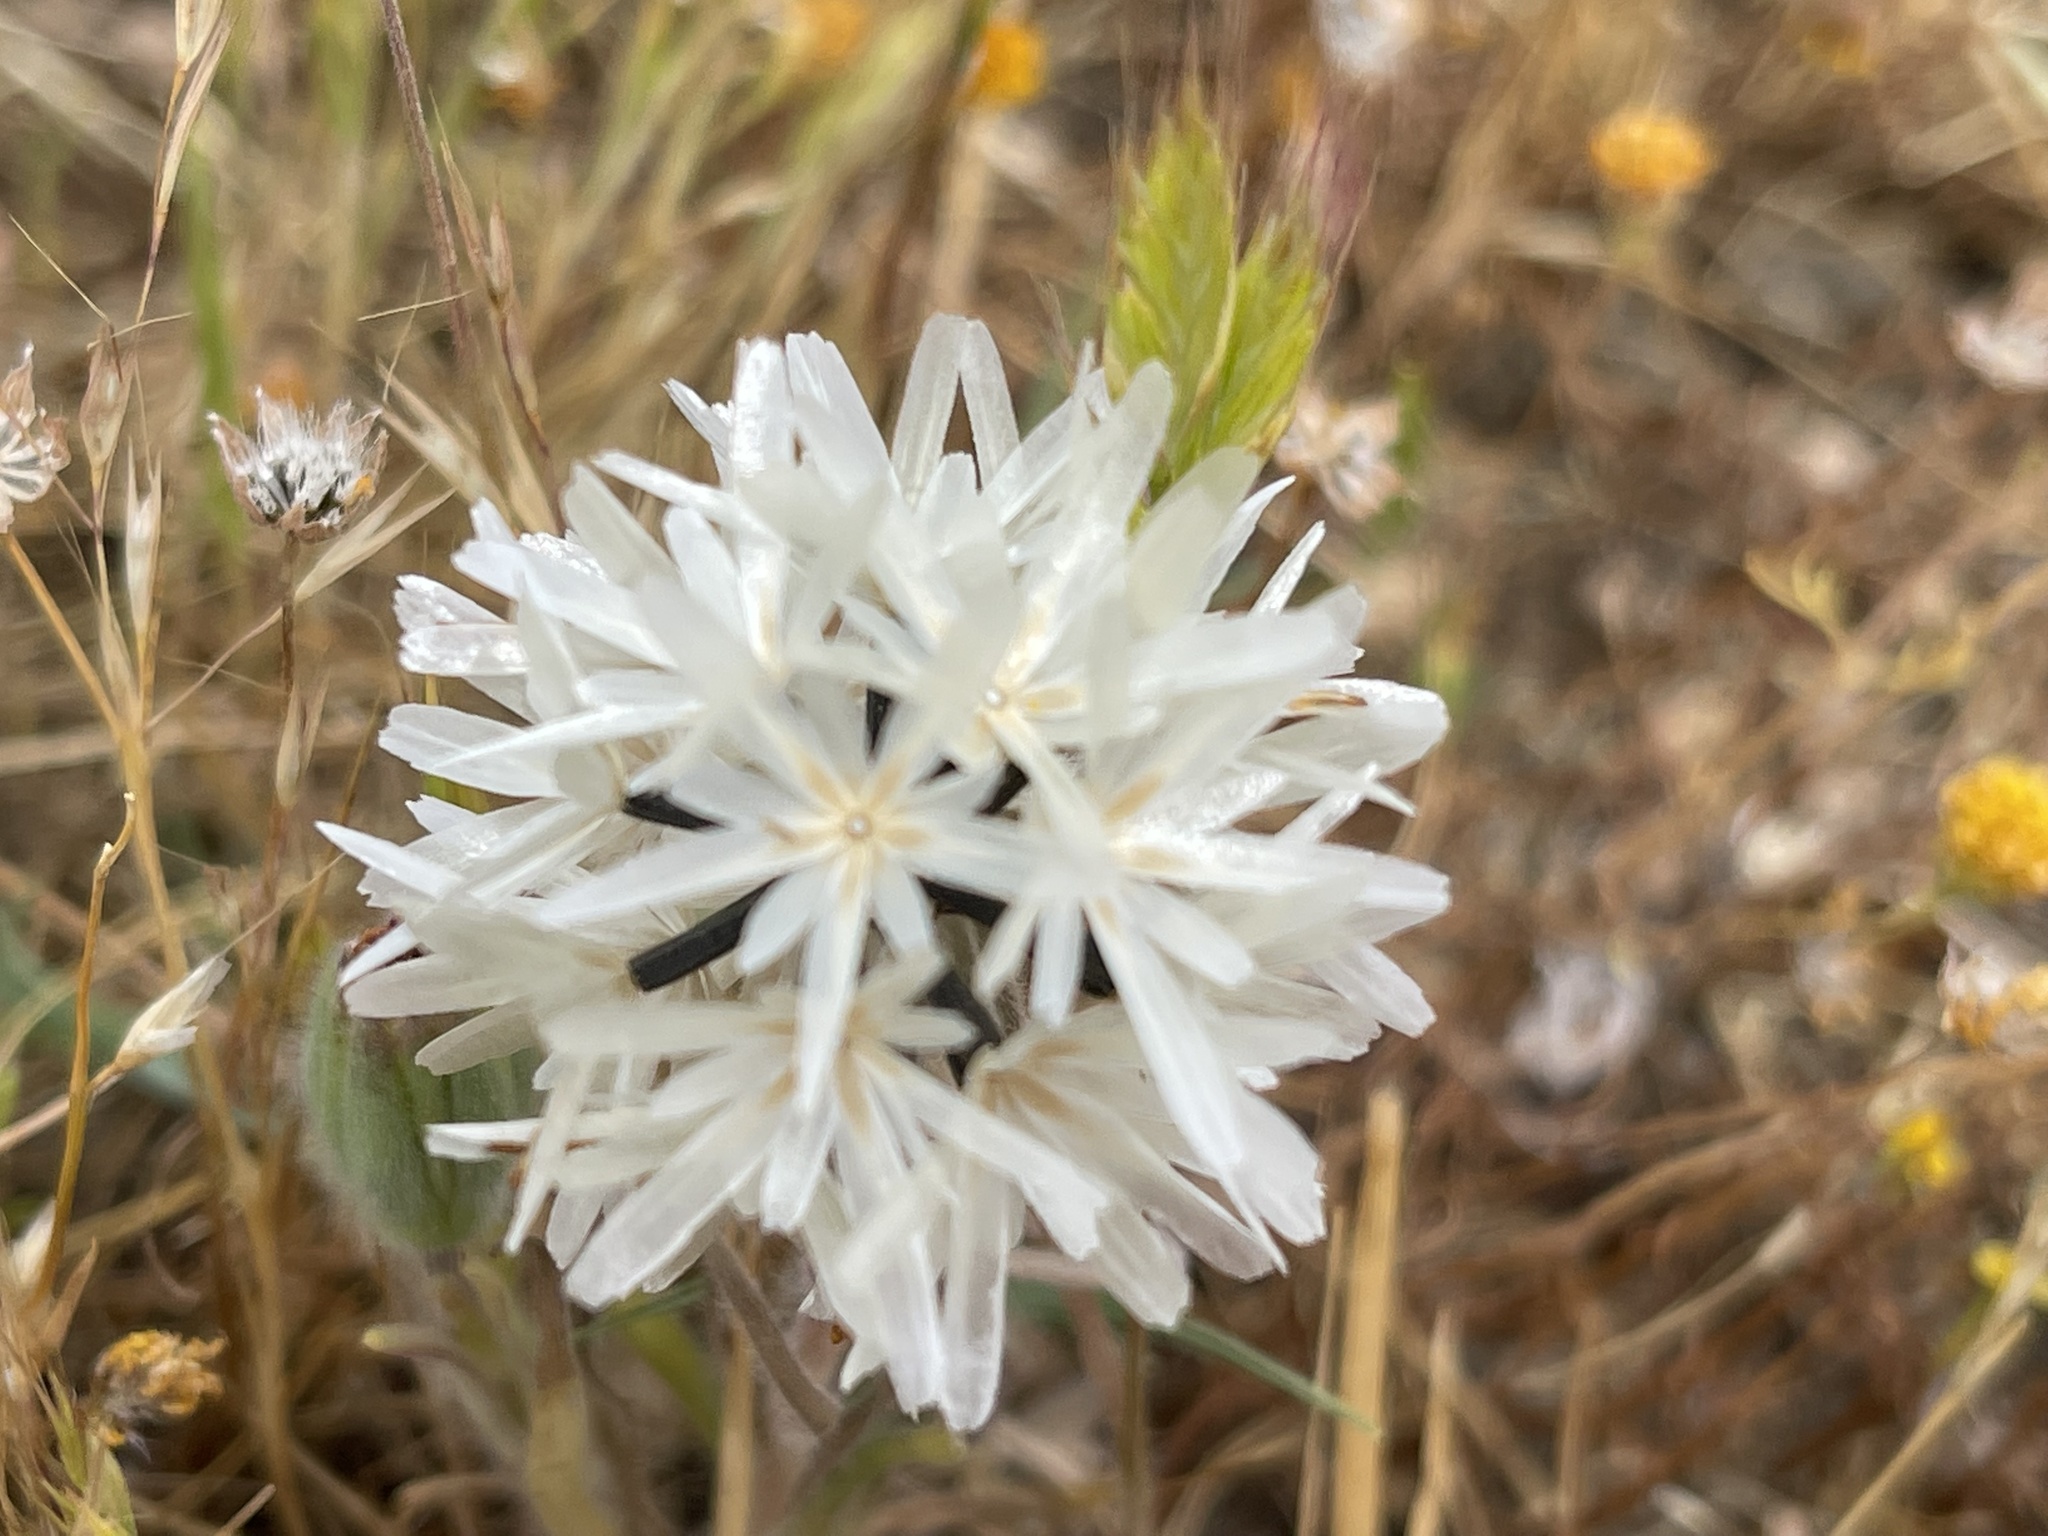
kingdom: Plantae
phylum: Tracheophyta
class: Magnoliopsida
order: Asterales
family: Asteraceae
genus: Achyrachaena
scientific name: Achyrachaena mollis
